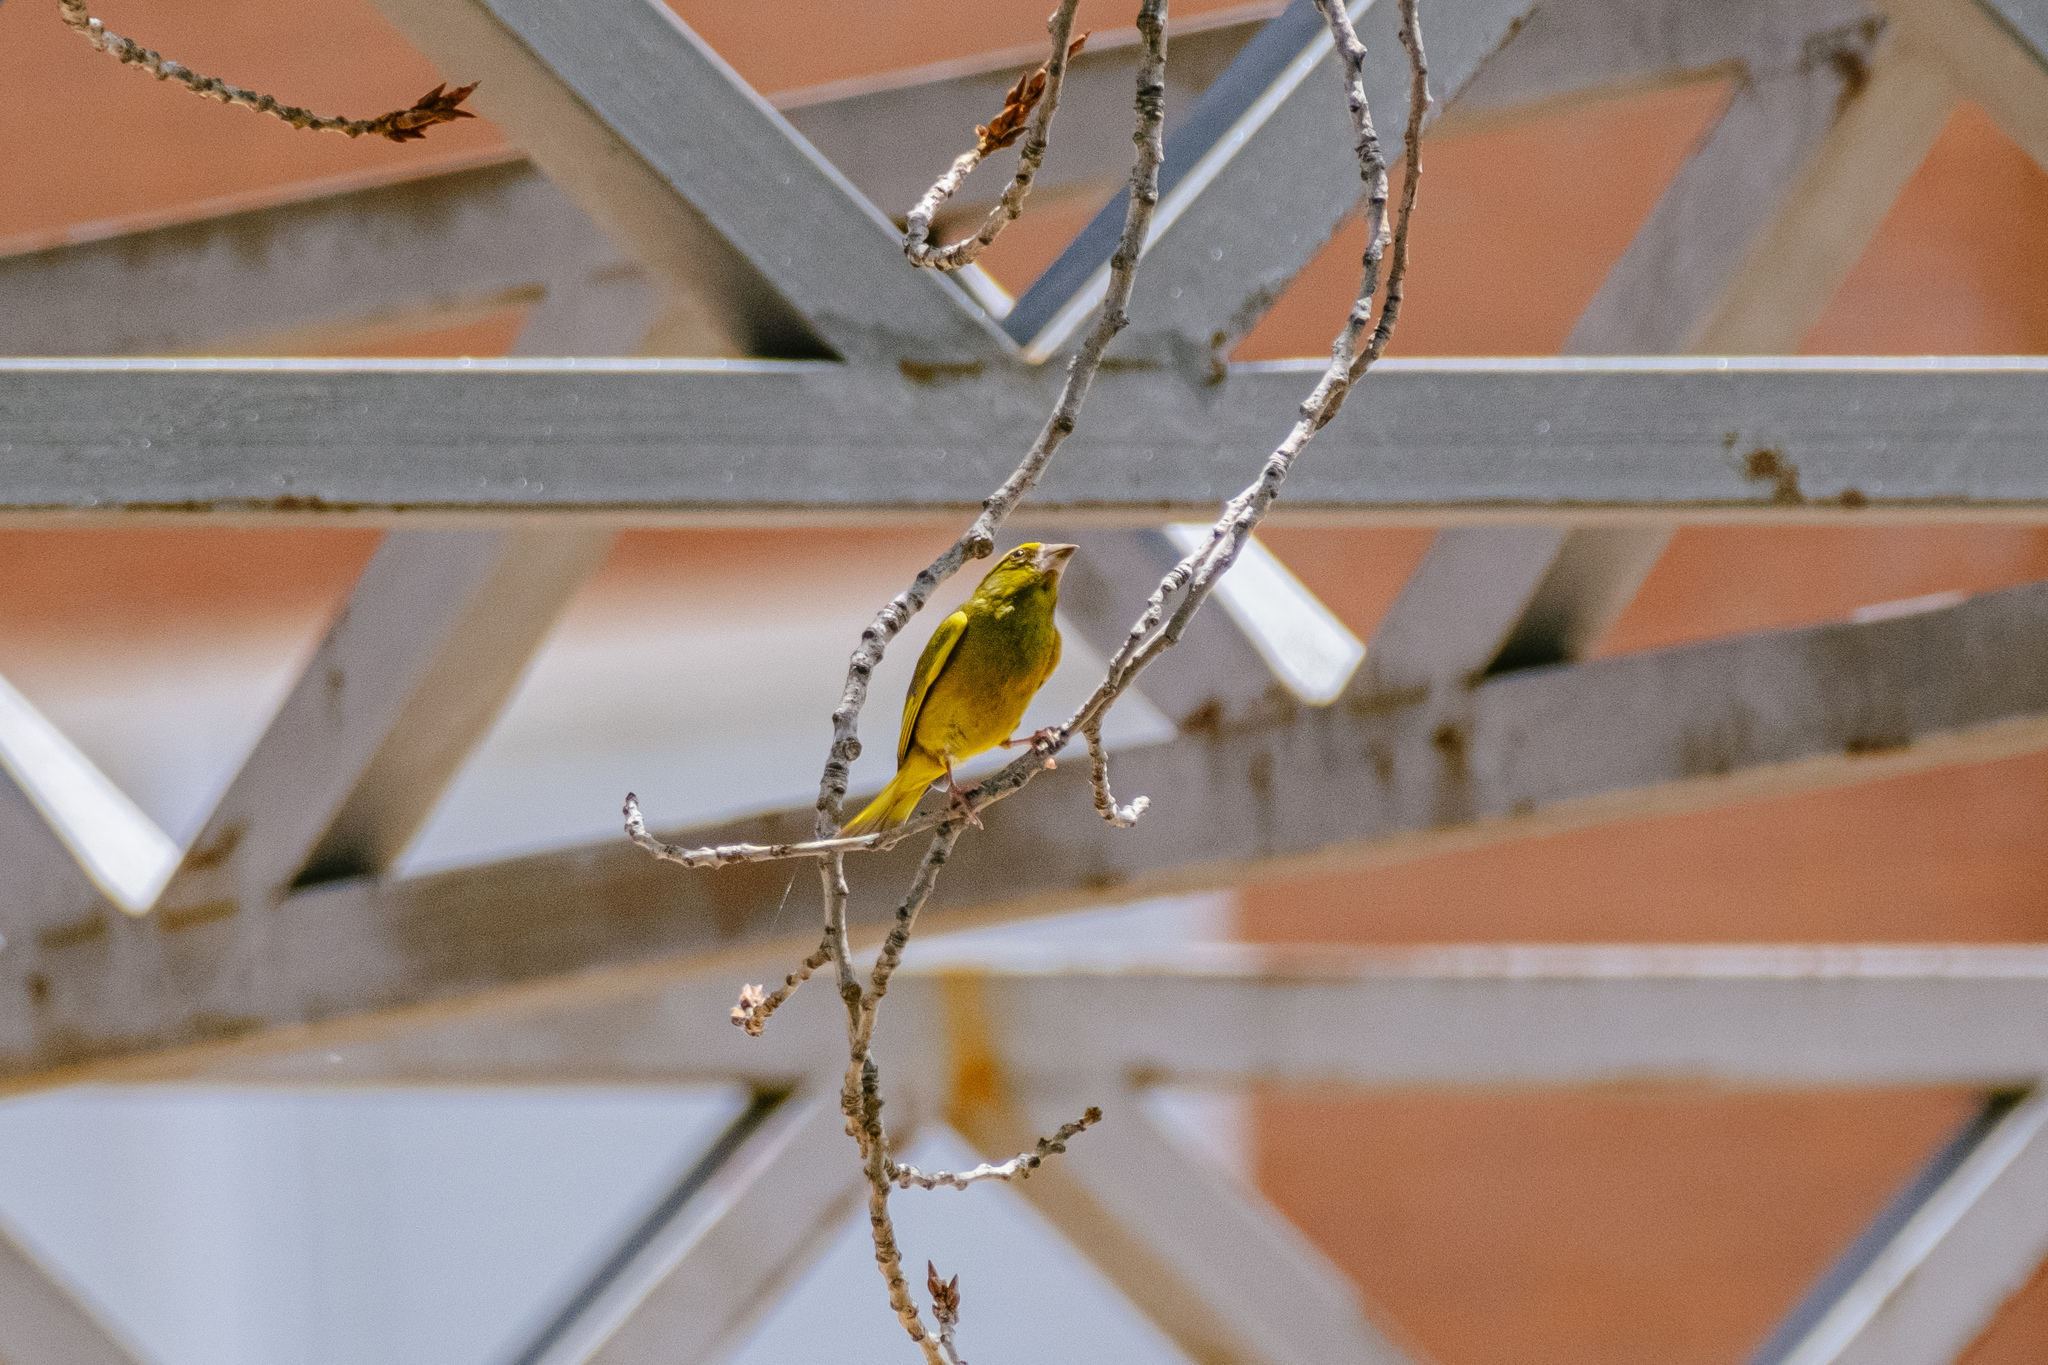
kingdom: Plantae
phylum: Tracheophyta
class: Liliopsida
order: Poales
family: Poaceae
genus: Chloris
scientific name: Chloris chloris
